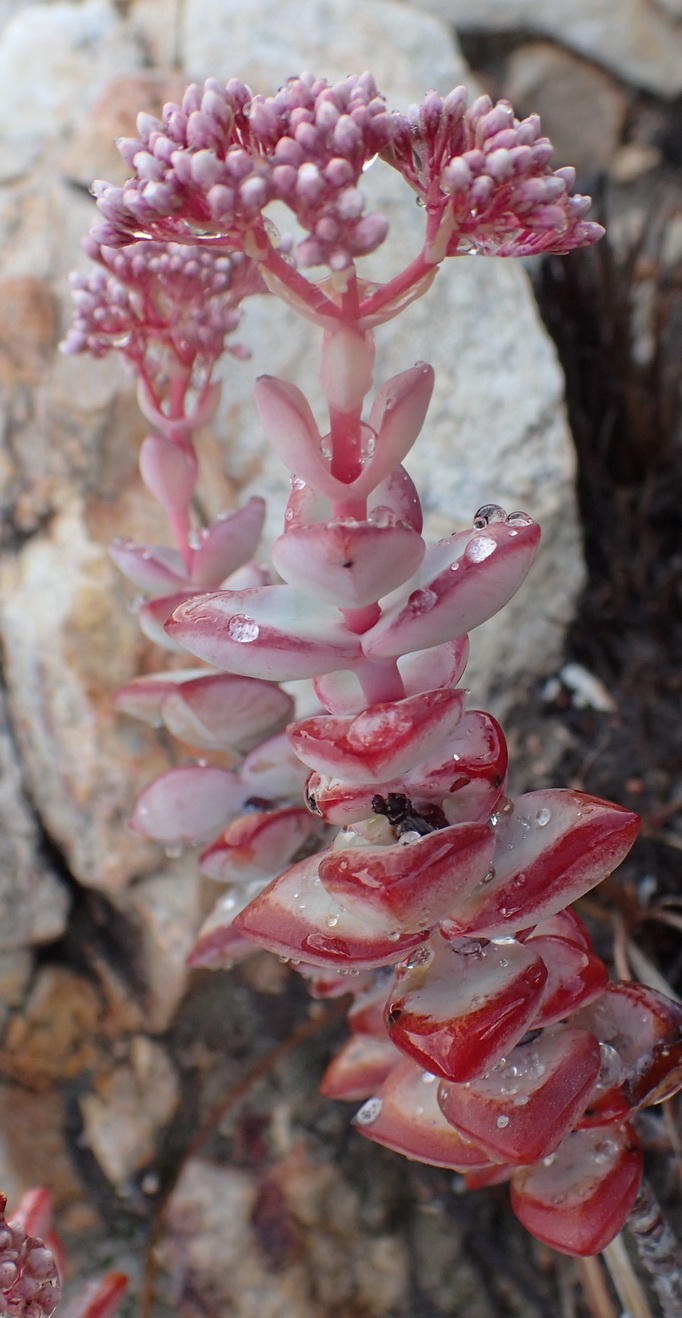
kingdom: Plantae
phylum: Tracheophyta
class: Magnoliopsida
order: Saxifragales
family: Crassulaceae
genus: Crassula
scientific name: Crassula rupestris
